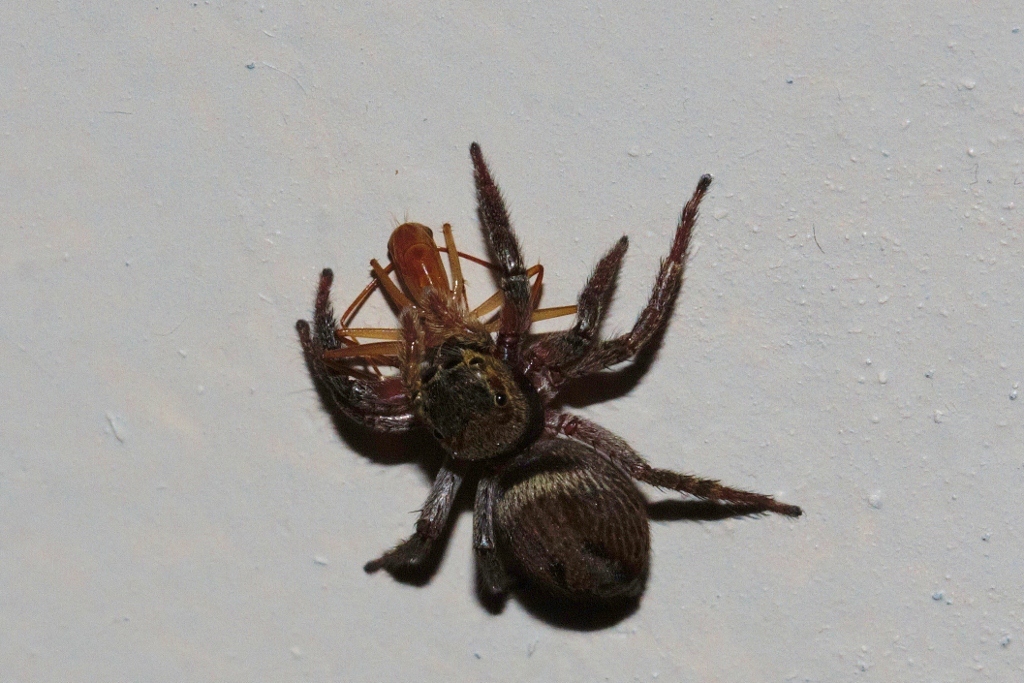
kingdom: Animalia
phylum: Arthropoda
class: Arachnida
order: Araneae
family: Salticidae
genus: Hasarius
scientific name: Hasarius adansoni
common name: Jumping spider
